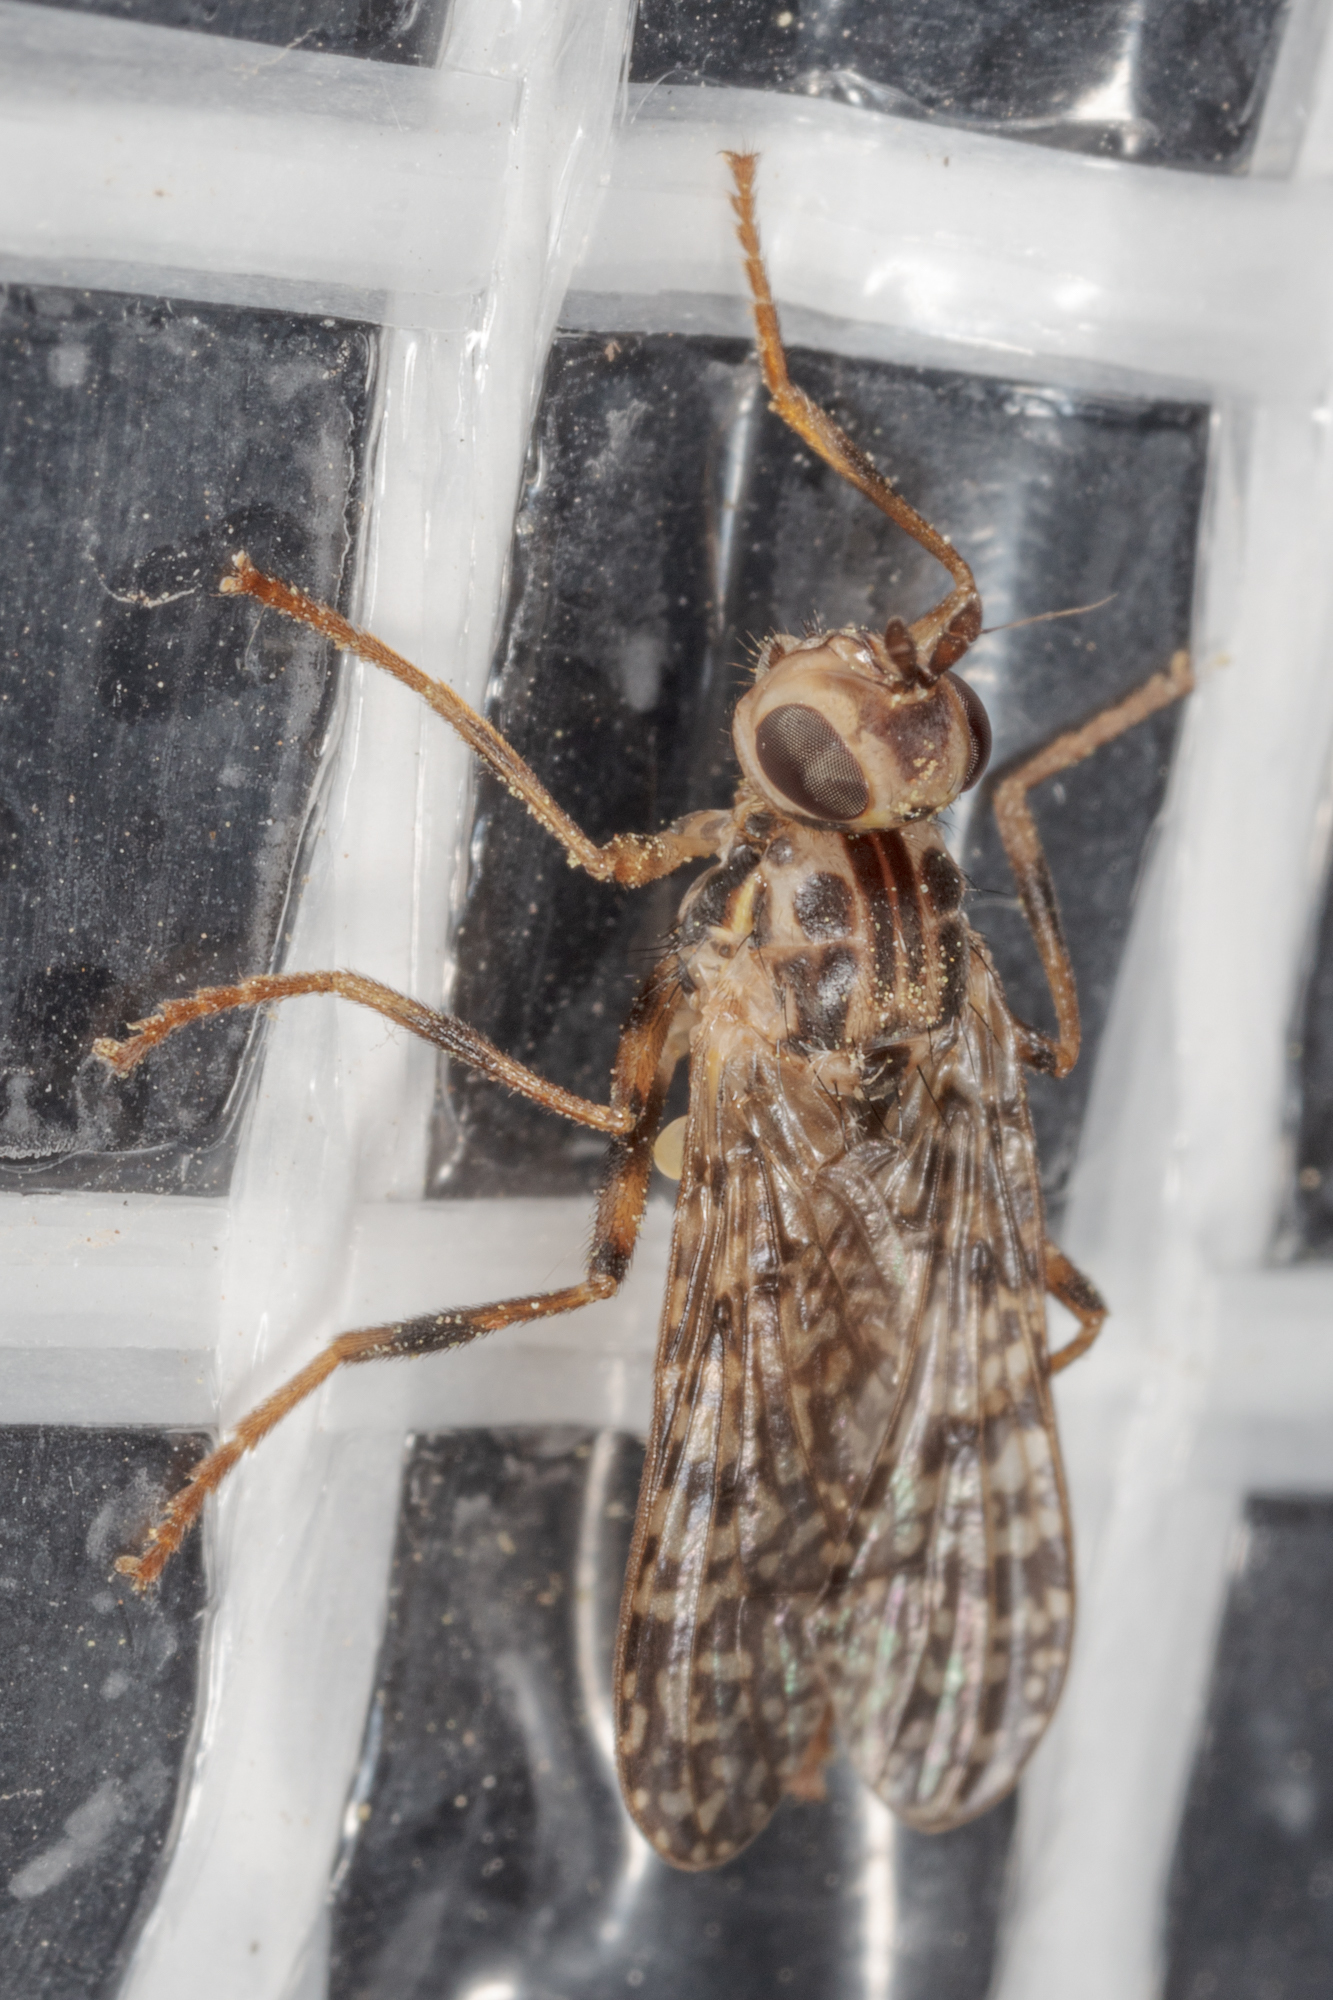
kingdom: Animalia
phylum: Arthropoda
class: Insecta
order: Diptera
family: Pyrgotidae
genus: Boreothrinax
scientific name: Boreothrinax
